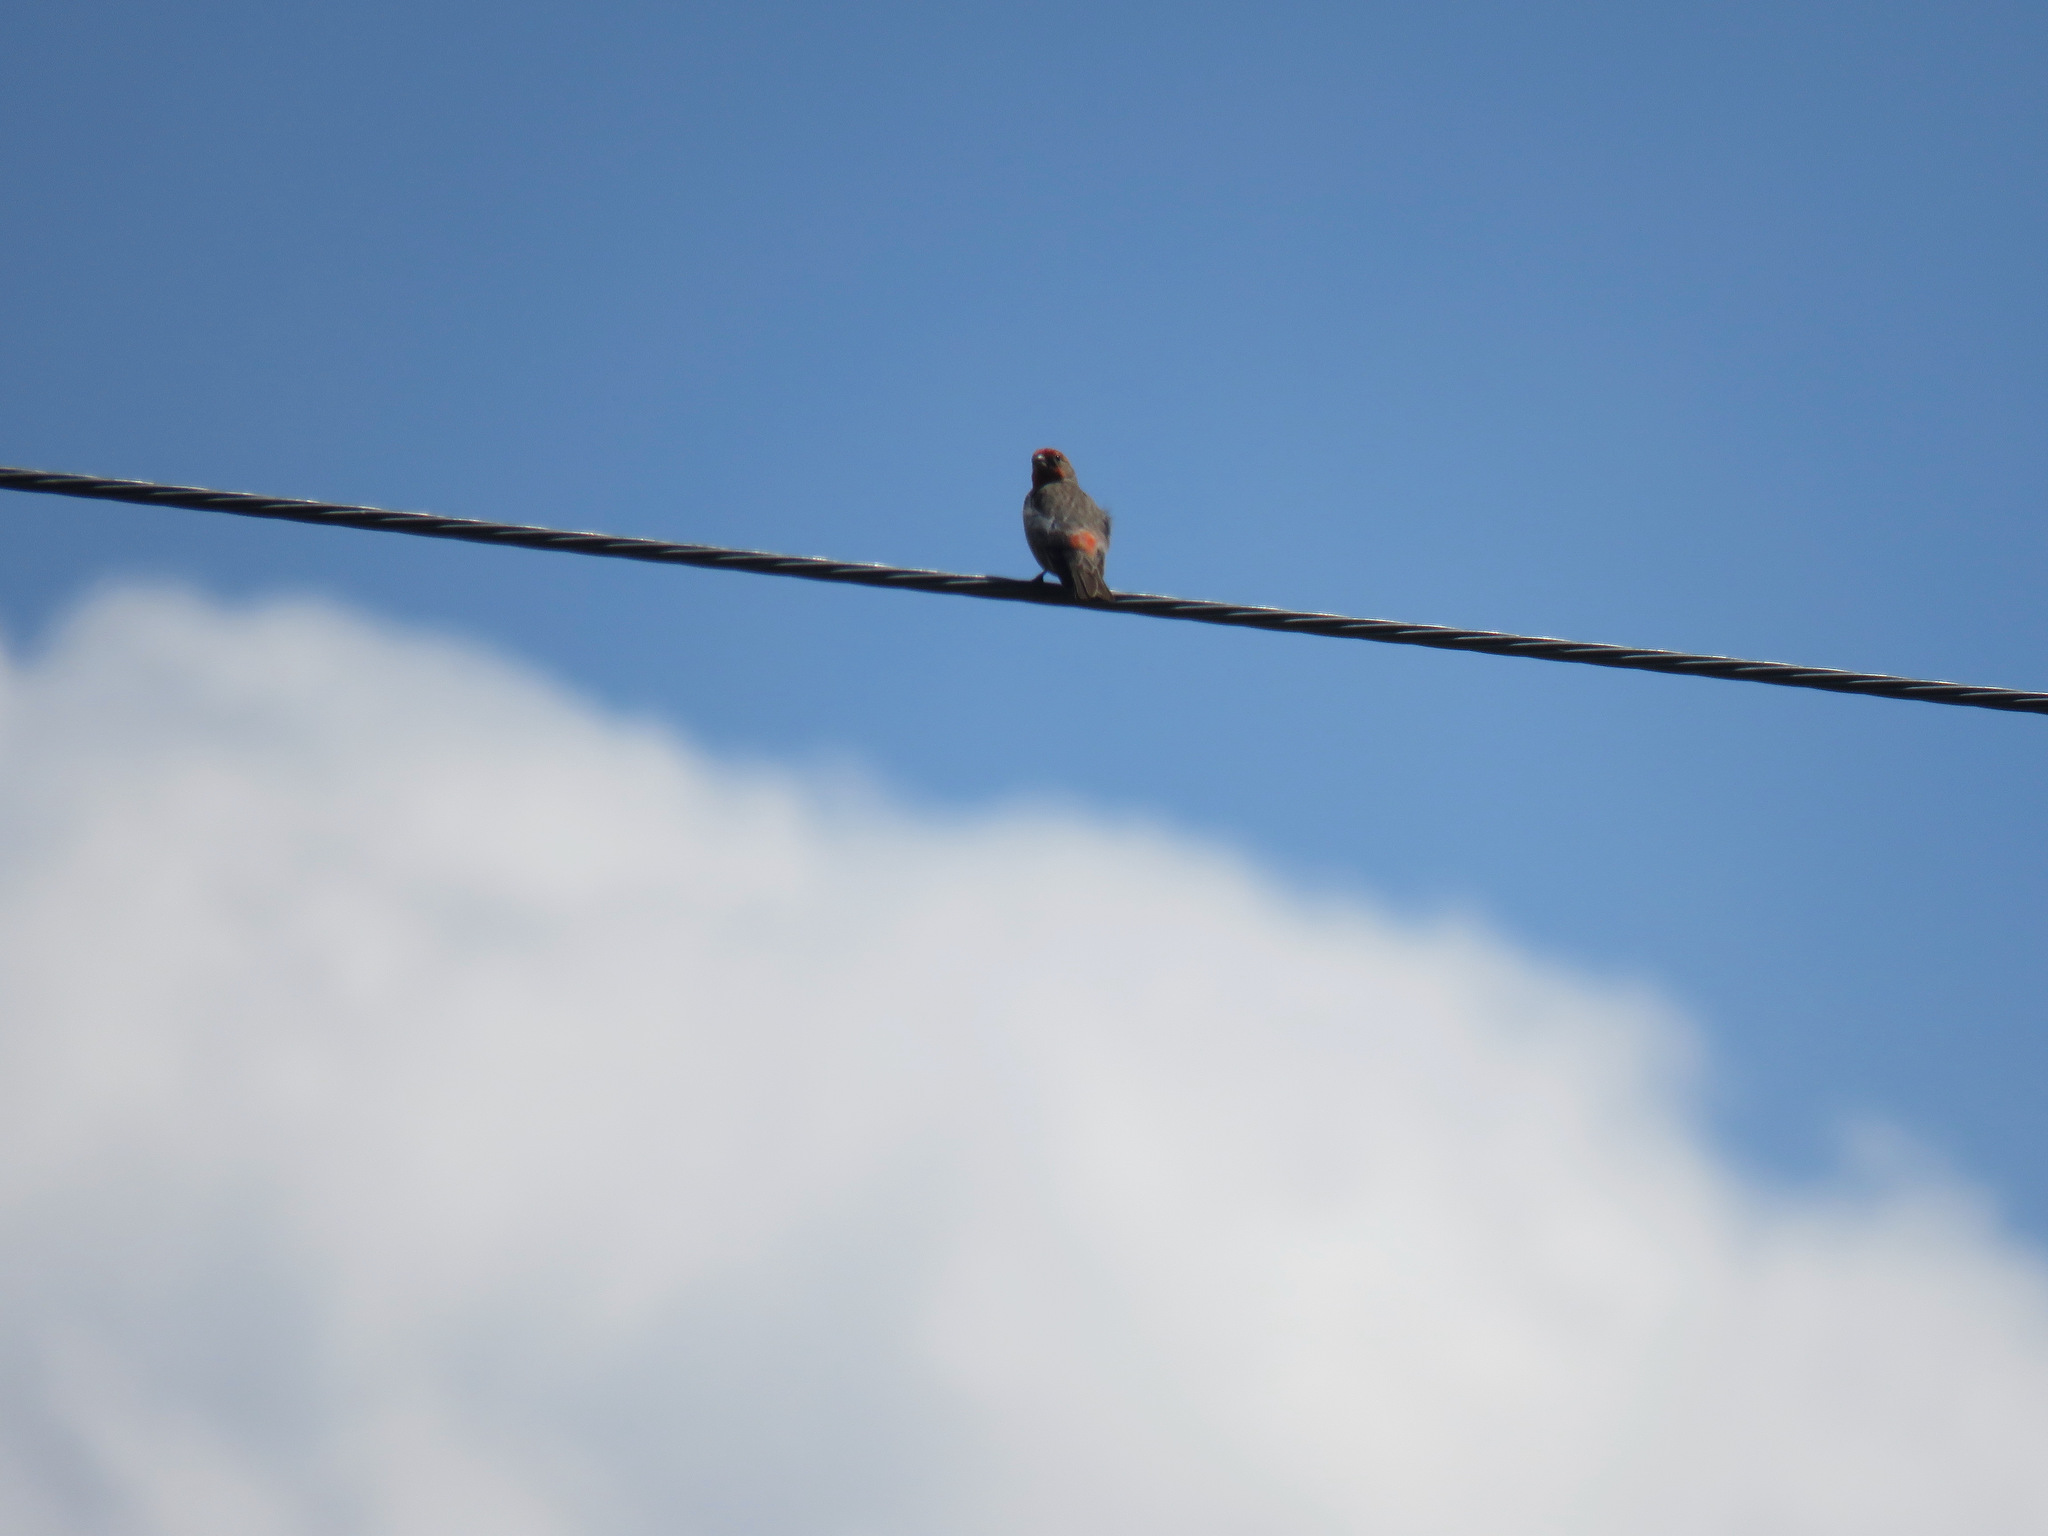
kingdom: Animalia
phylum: Chordata
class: Aves
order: Passeriformes
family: Fringillidae
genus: Haemorhous
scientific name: Haemorhous mexicanus
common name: House finch
